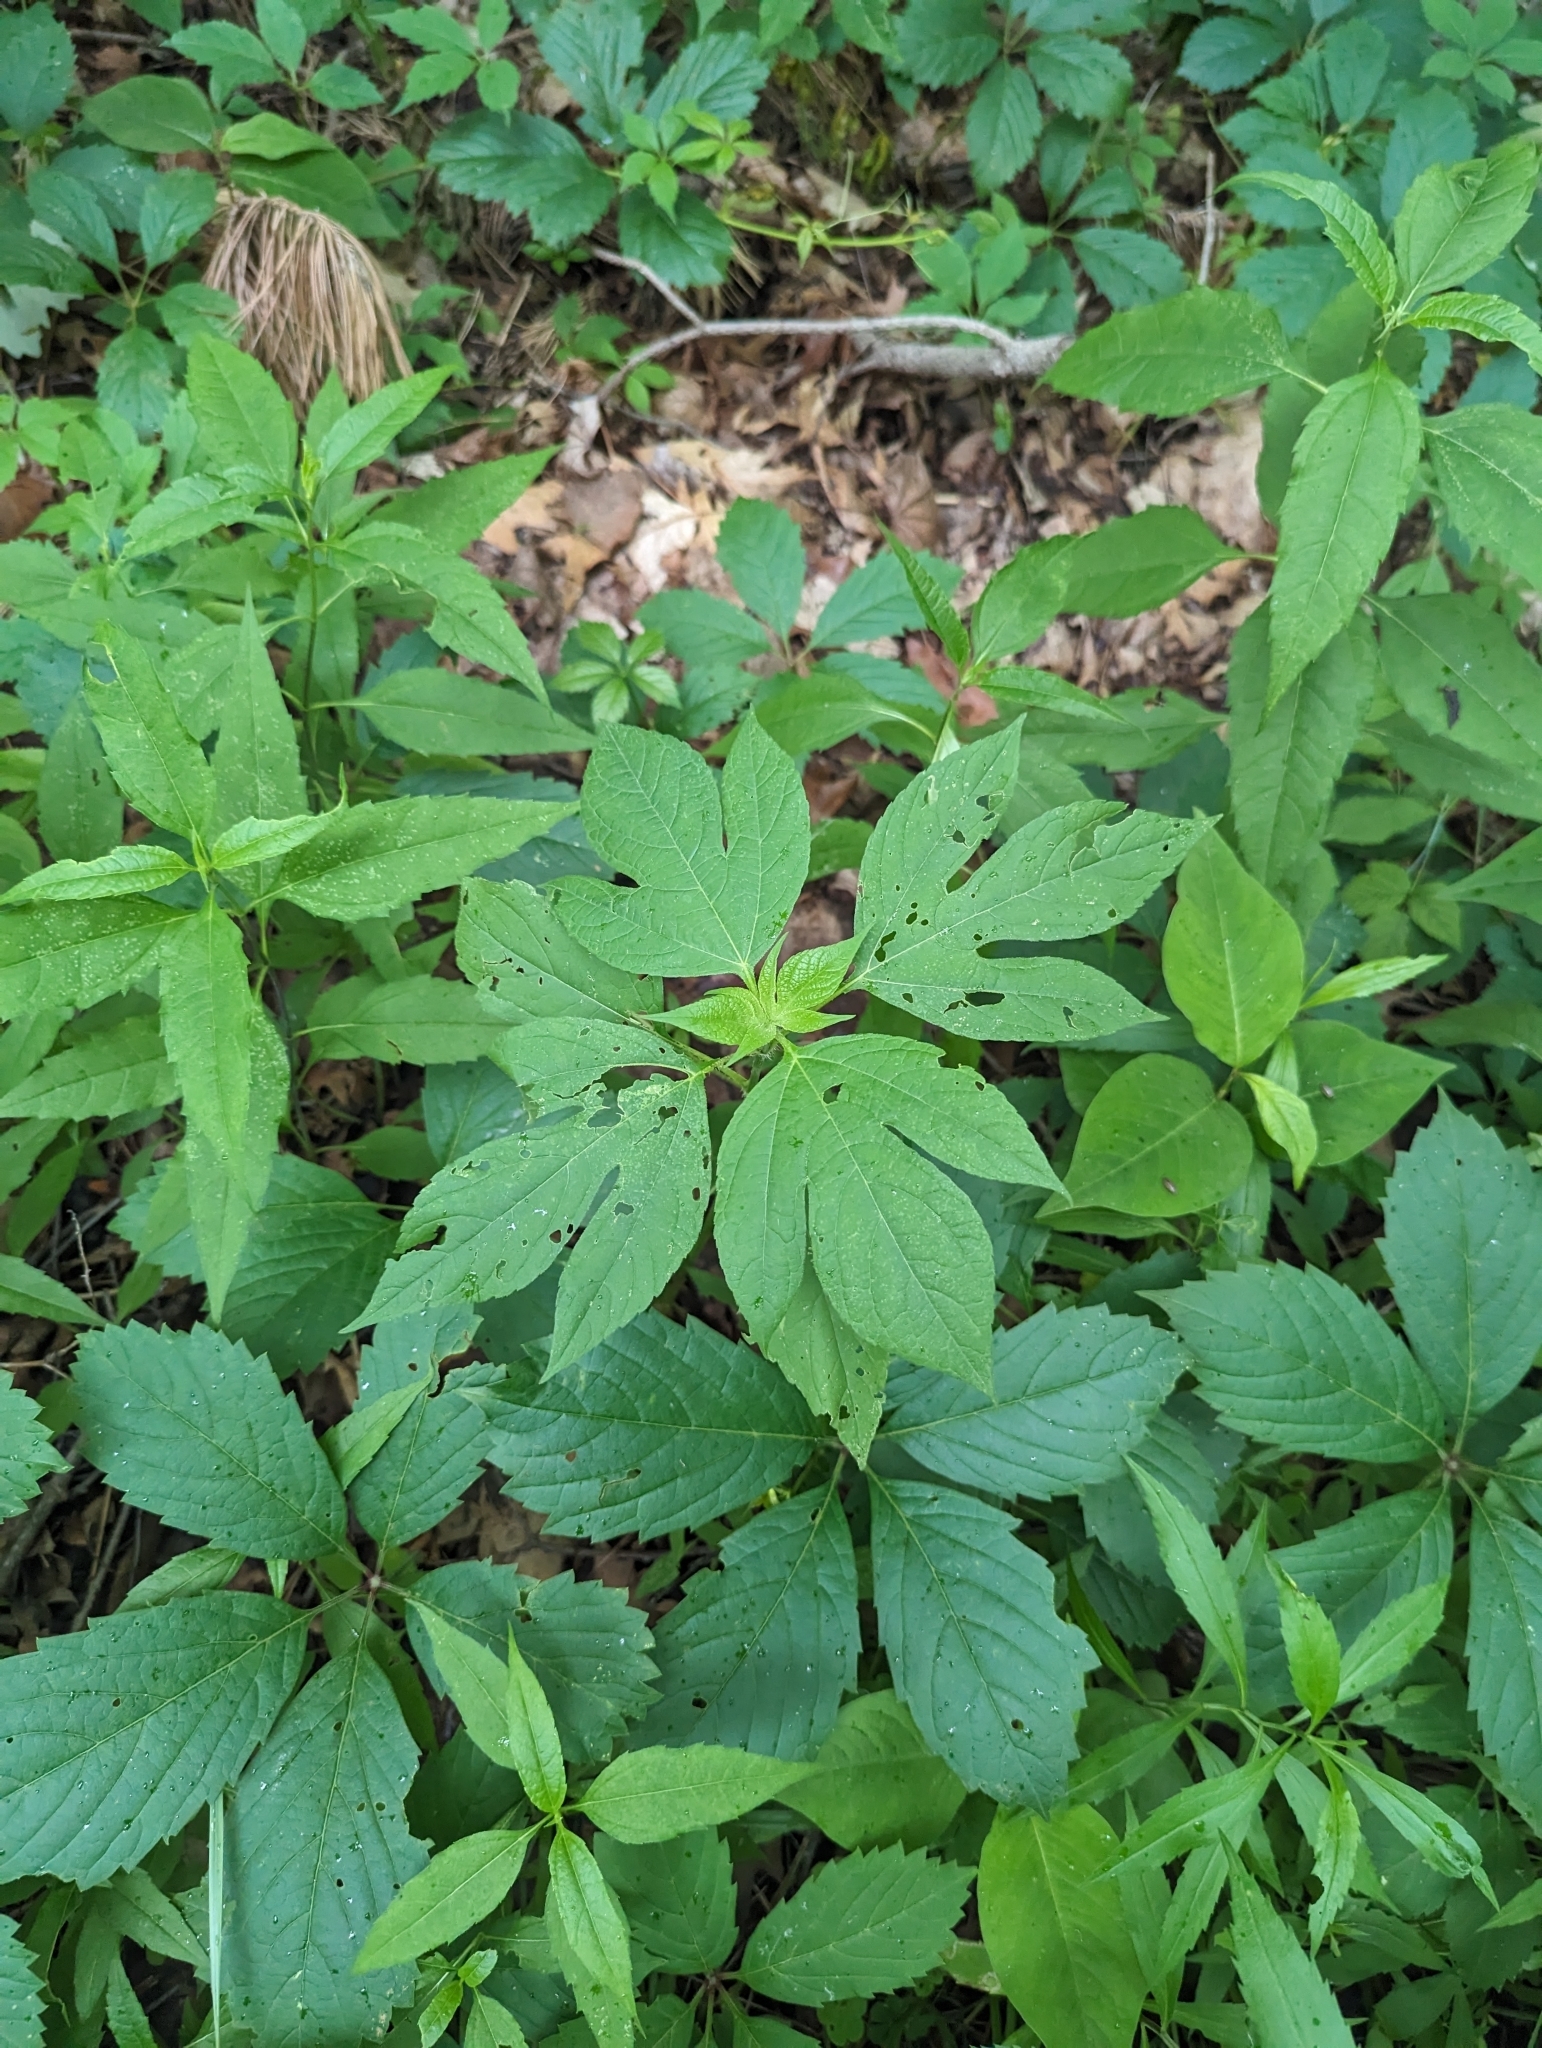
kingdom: Plantae
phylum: Tracheophyta
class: Magnoliopsida
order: Asterales
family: Asteraceae
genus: Ambrosia
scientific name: Ambrosia trifida
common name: Giant ragweed
